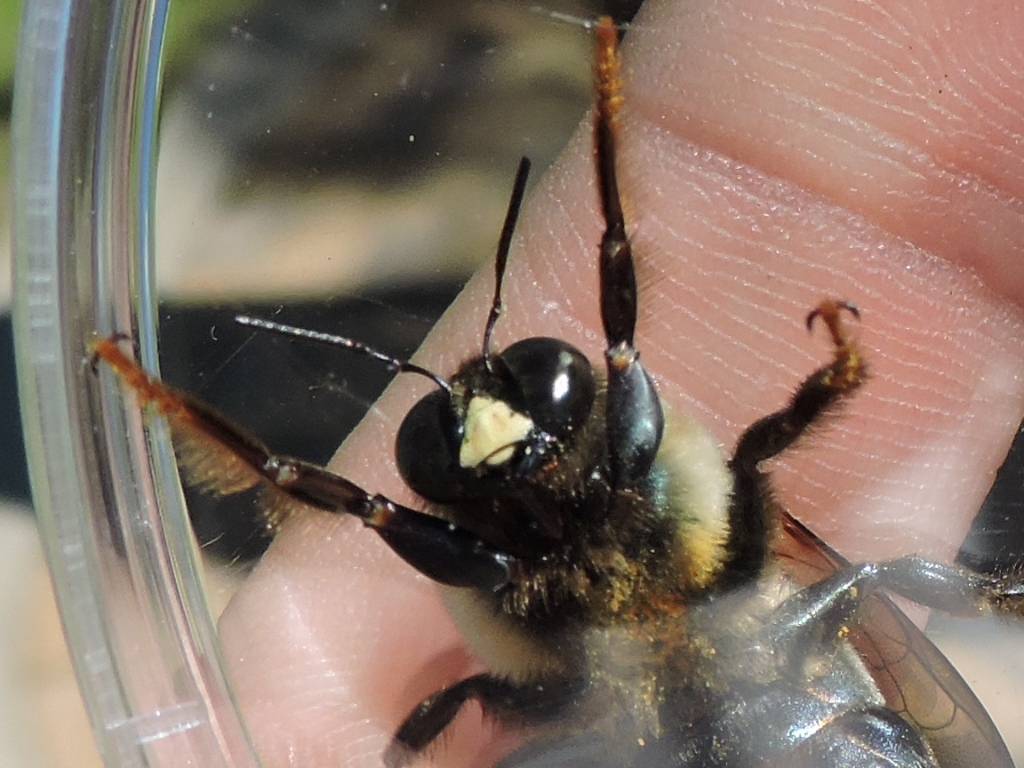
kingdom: Animalia
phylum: Arthropoda
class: Insecta
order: Hymenoptera
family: Apidae
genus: Xylocopa
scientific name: Xylocopa virginica
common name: Carpenter bee
